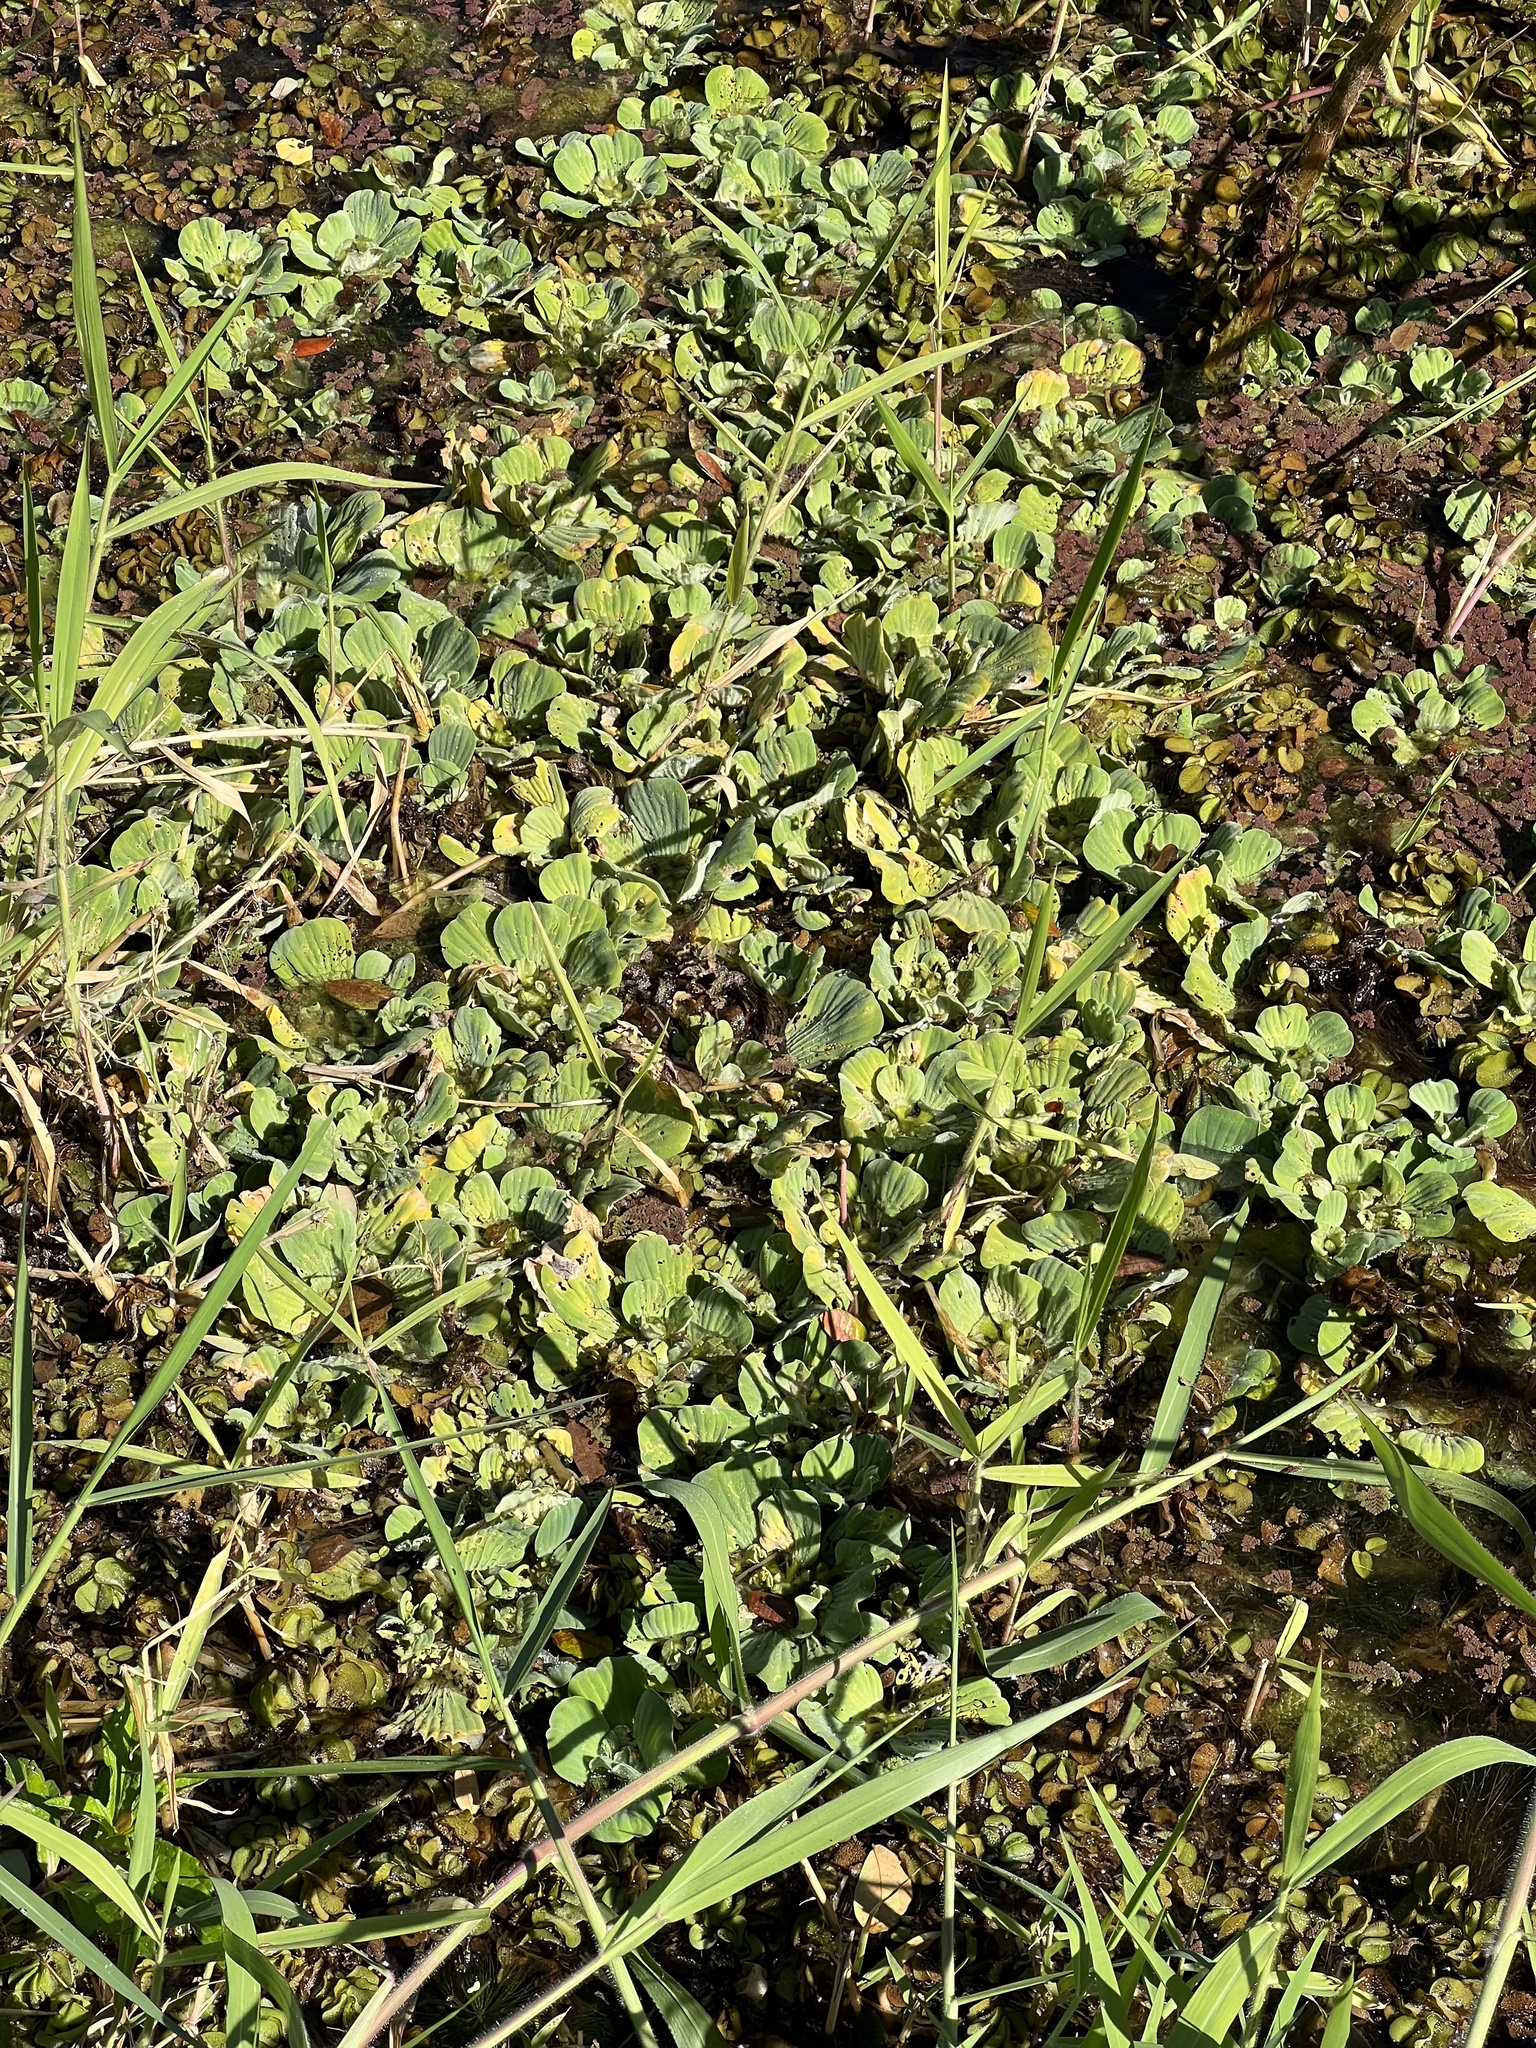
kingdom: Plantae
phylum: Tracheophyta
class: Liliopsida
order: Alismatales
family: Araceae
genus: Pistia
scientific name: Pistia stratiotes
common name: Water lettuce
